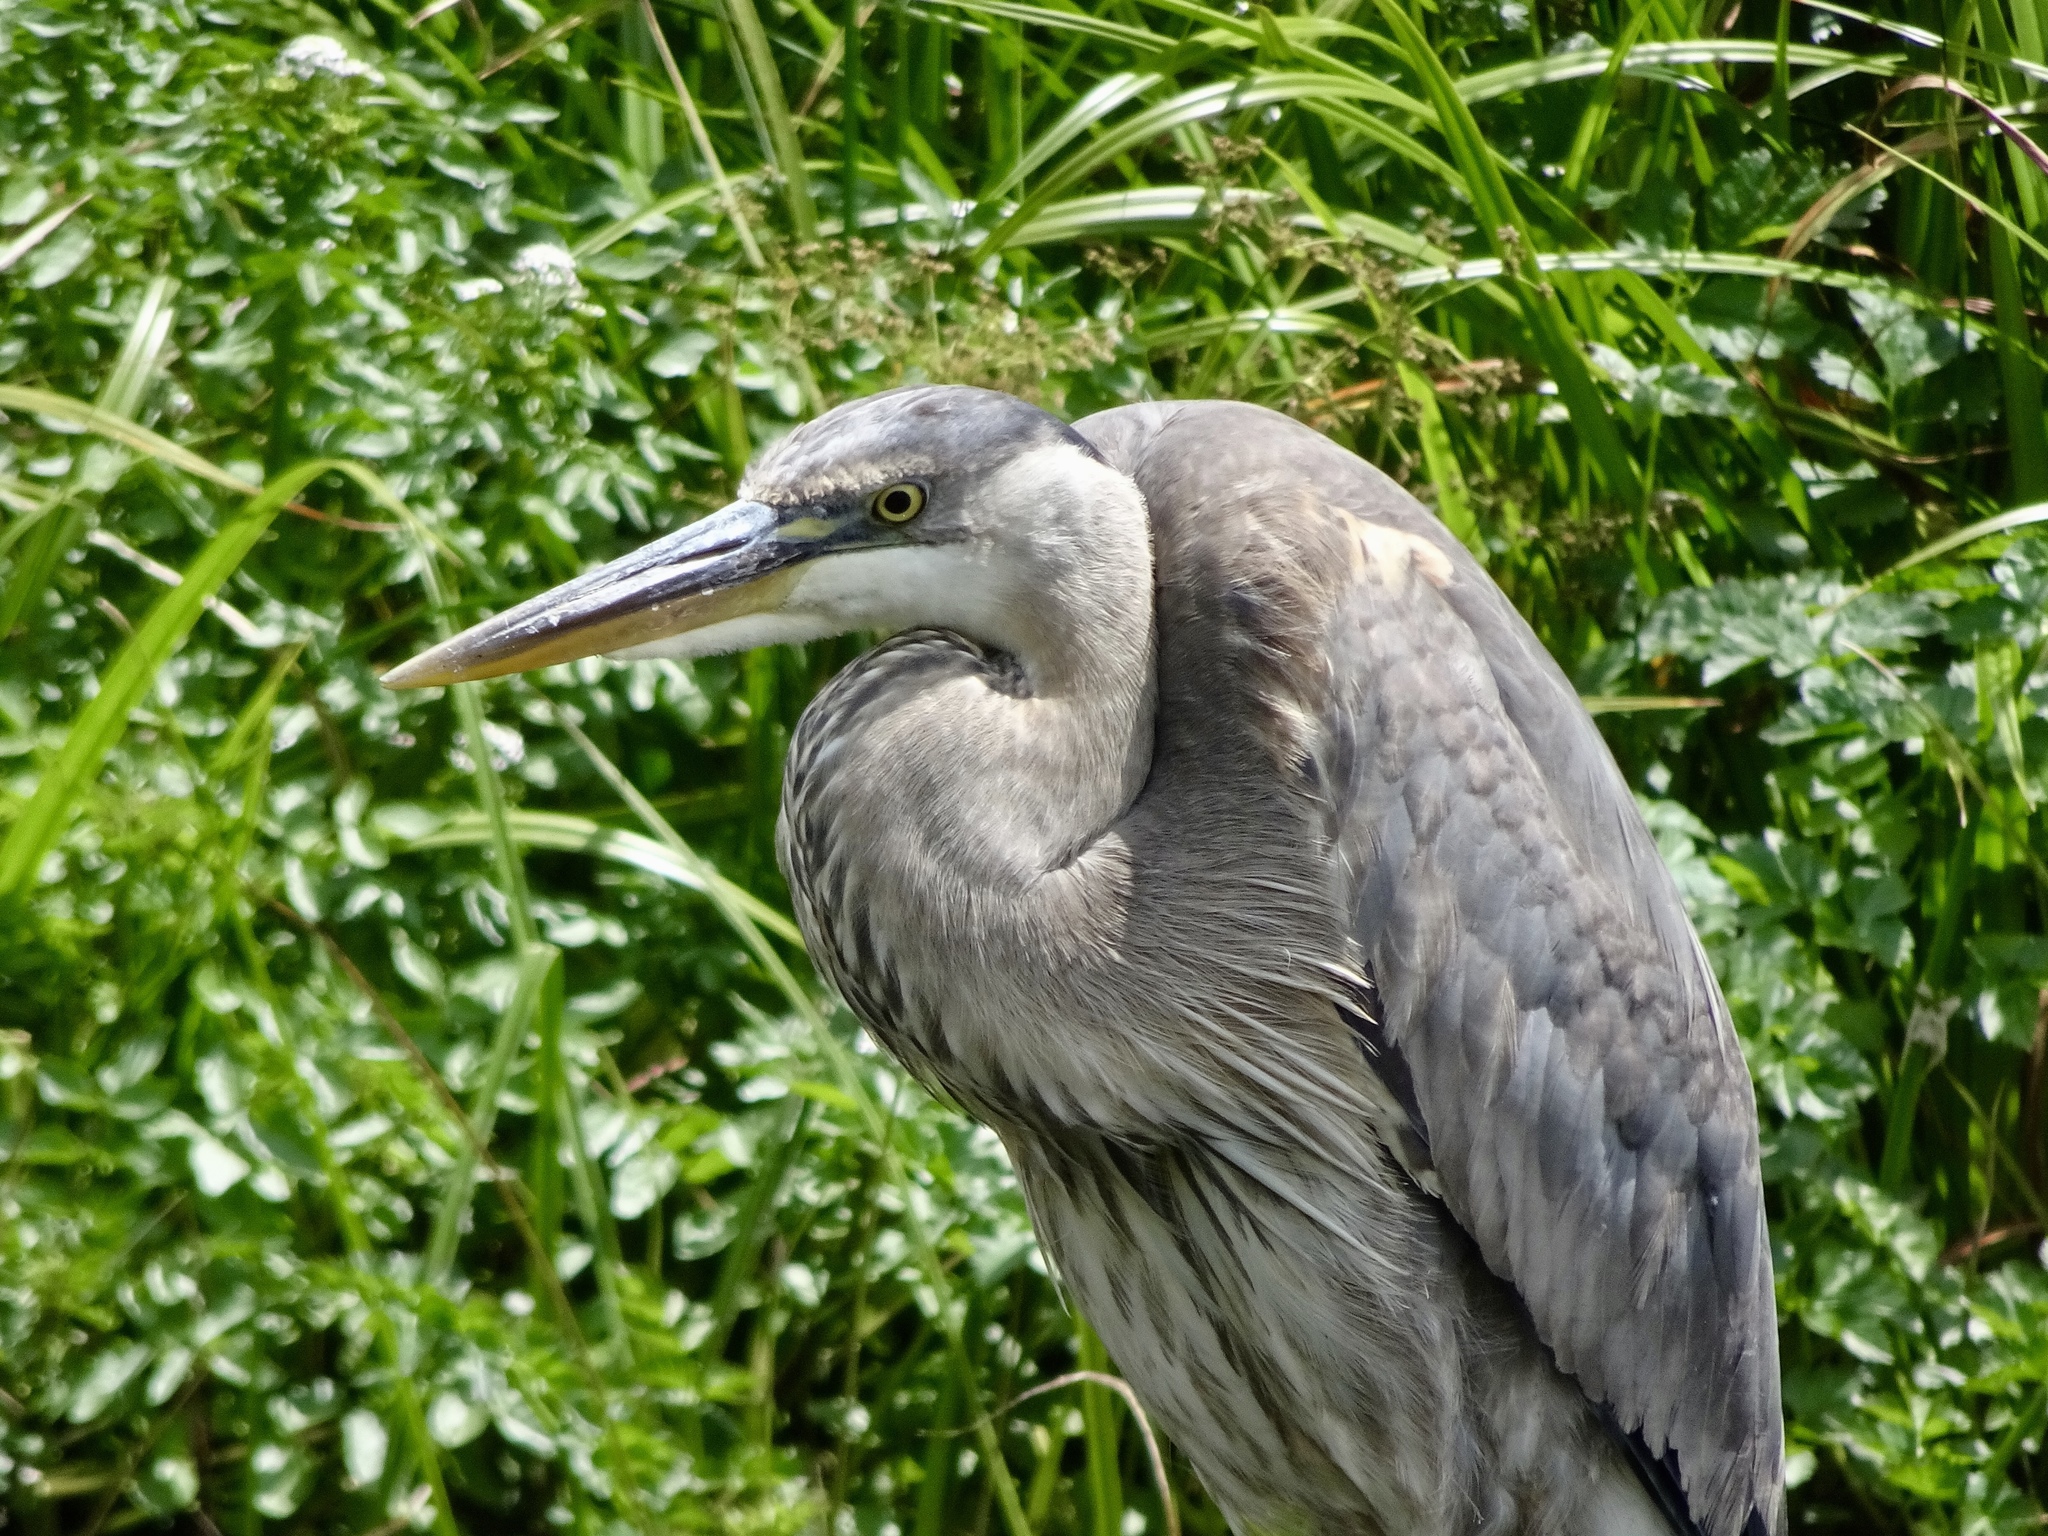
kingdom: Animalia
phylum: Chordata
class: Aves
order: Pelecaniformes
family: Ardeidae
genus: Ardea
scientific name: Ardea herodias
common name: Great blue heron
